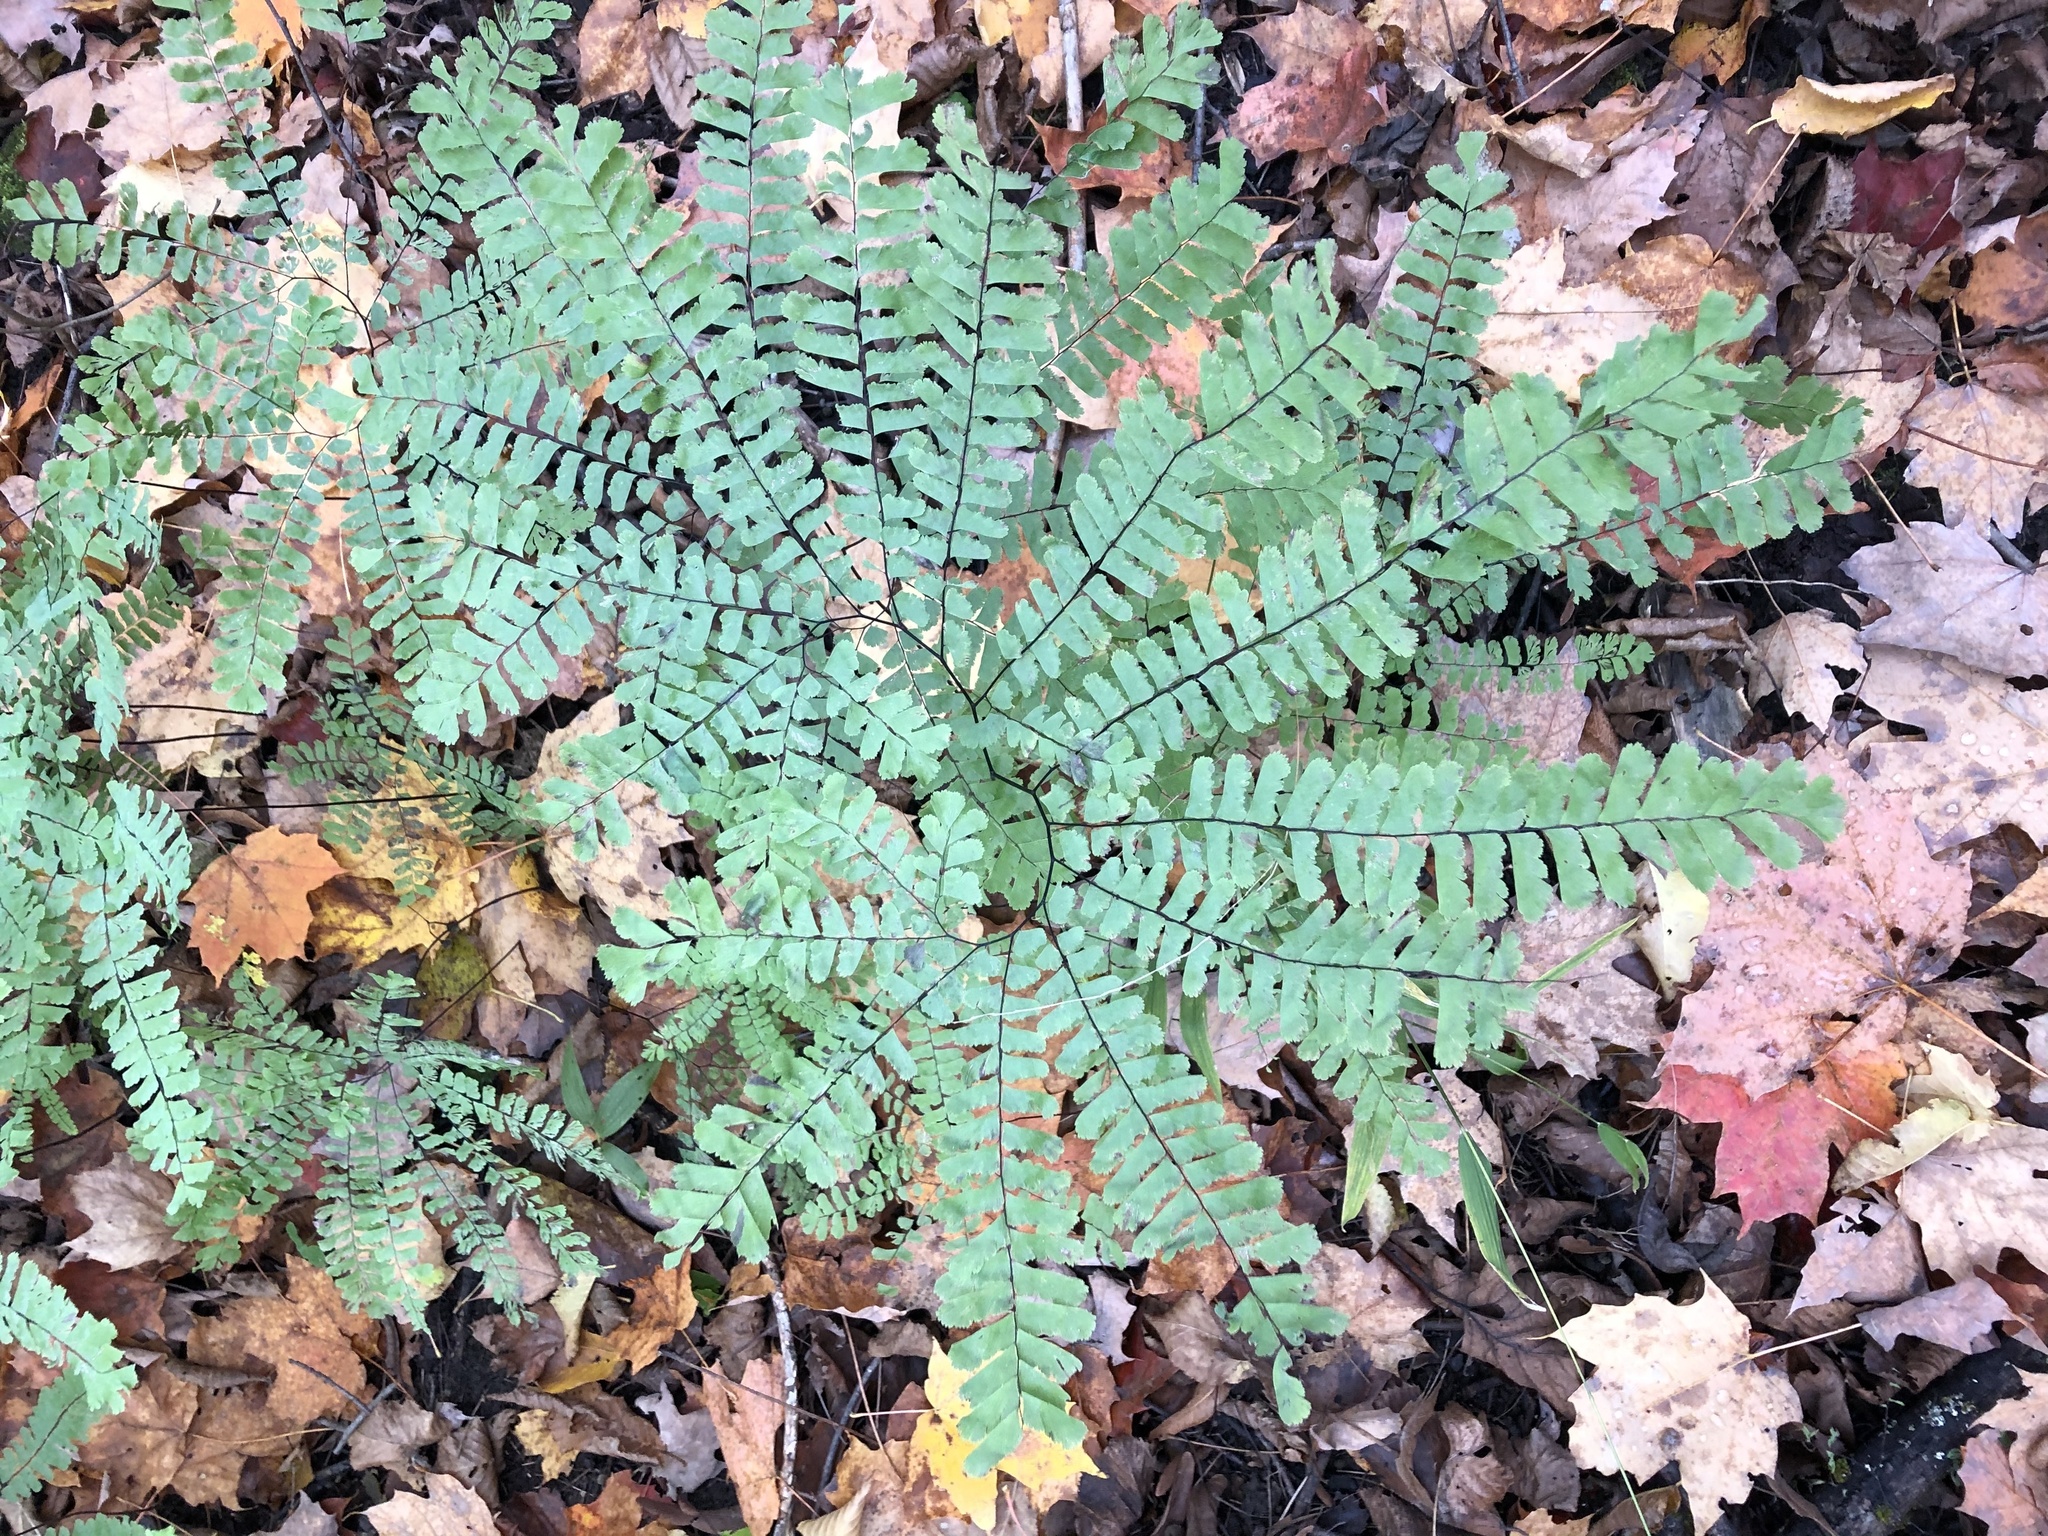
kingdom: Plantae
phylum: Tracheophyta
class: Polypodiopsida
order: Polypodiales
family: Pteridaceae
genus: Adiantum
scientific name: Adiantum pedatum
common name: Five-finger fern
